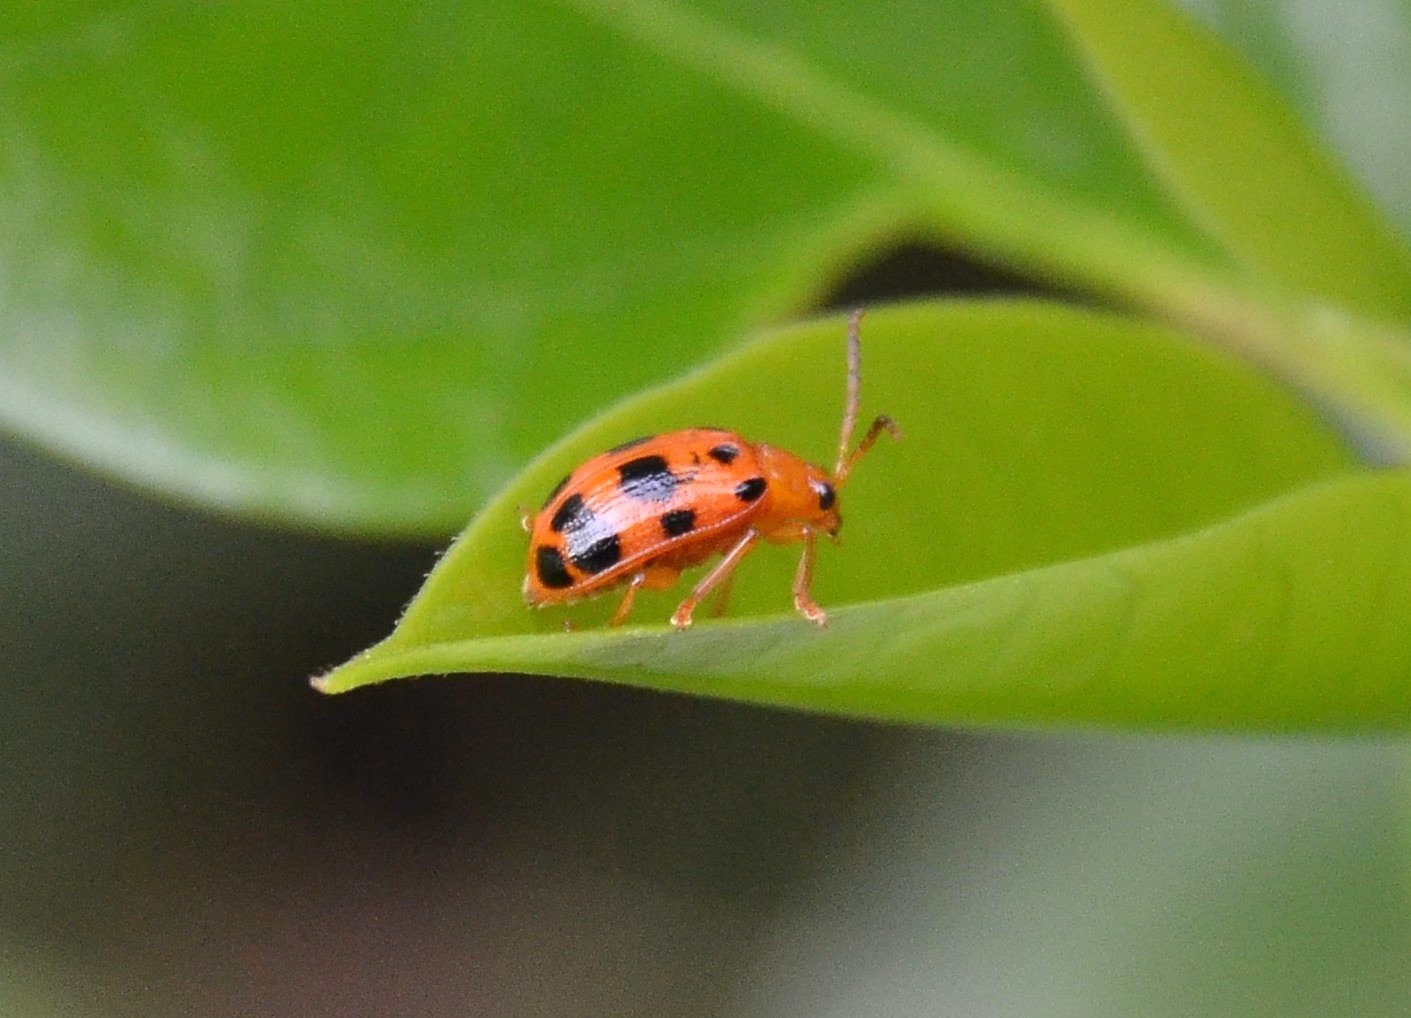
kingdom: Animalia
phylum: Arthropoda
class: Insecta
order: Coleoptera
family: Chrysomelidae
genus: Sphenoraia
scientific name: Sphenoraia
